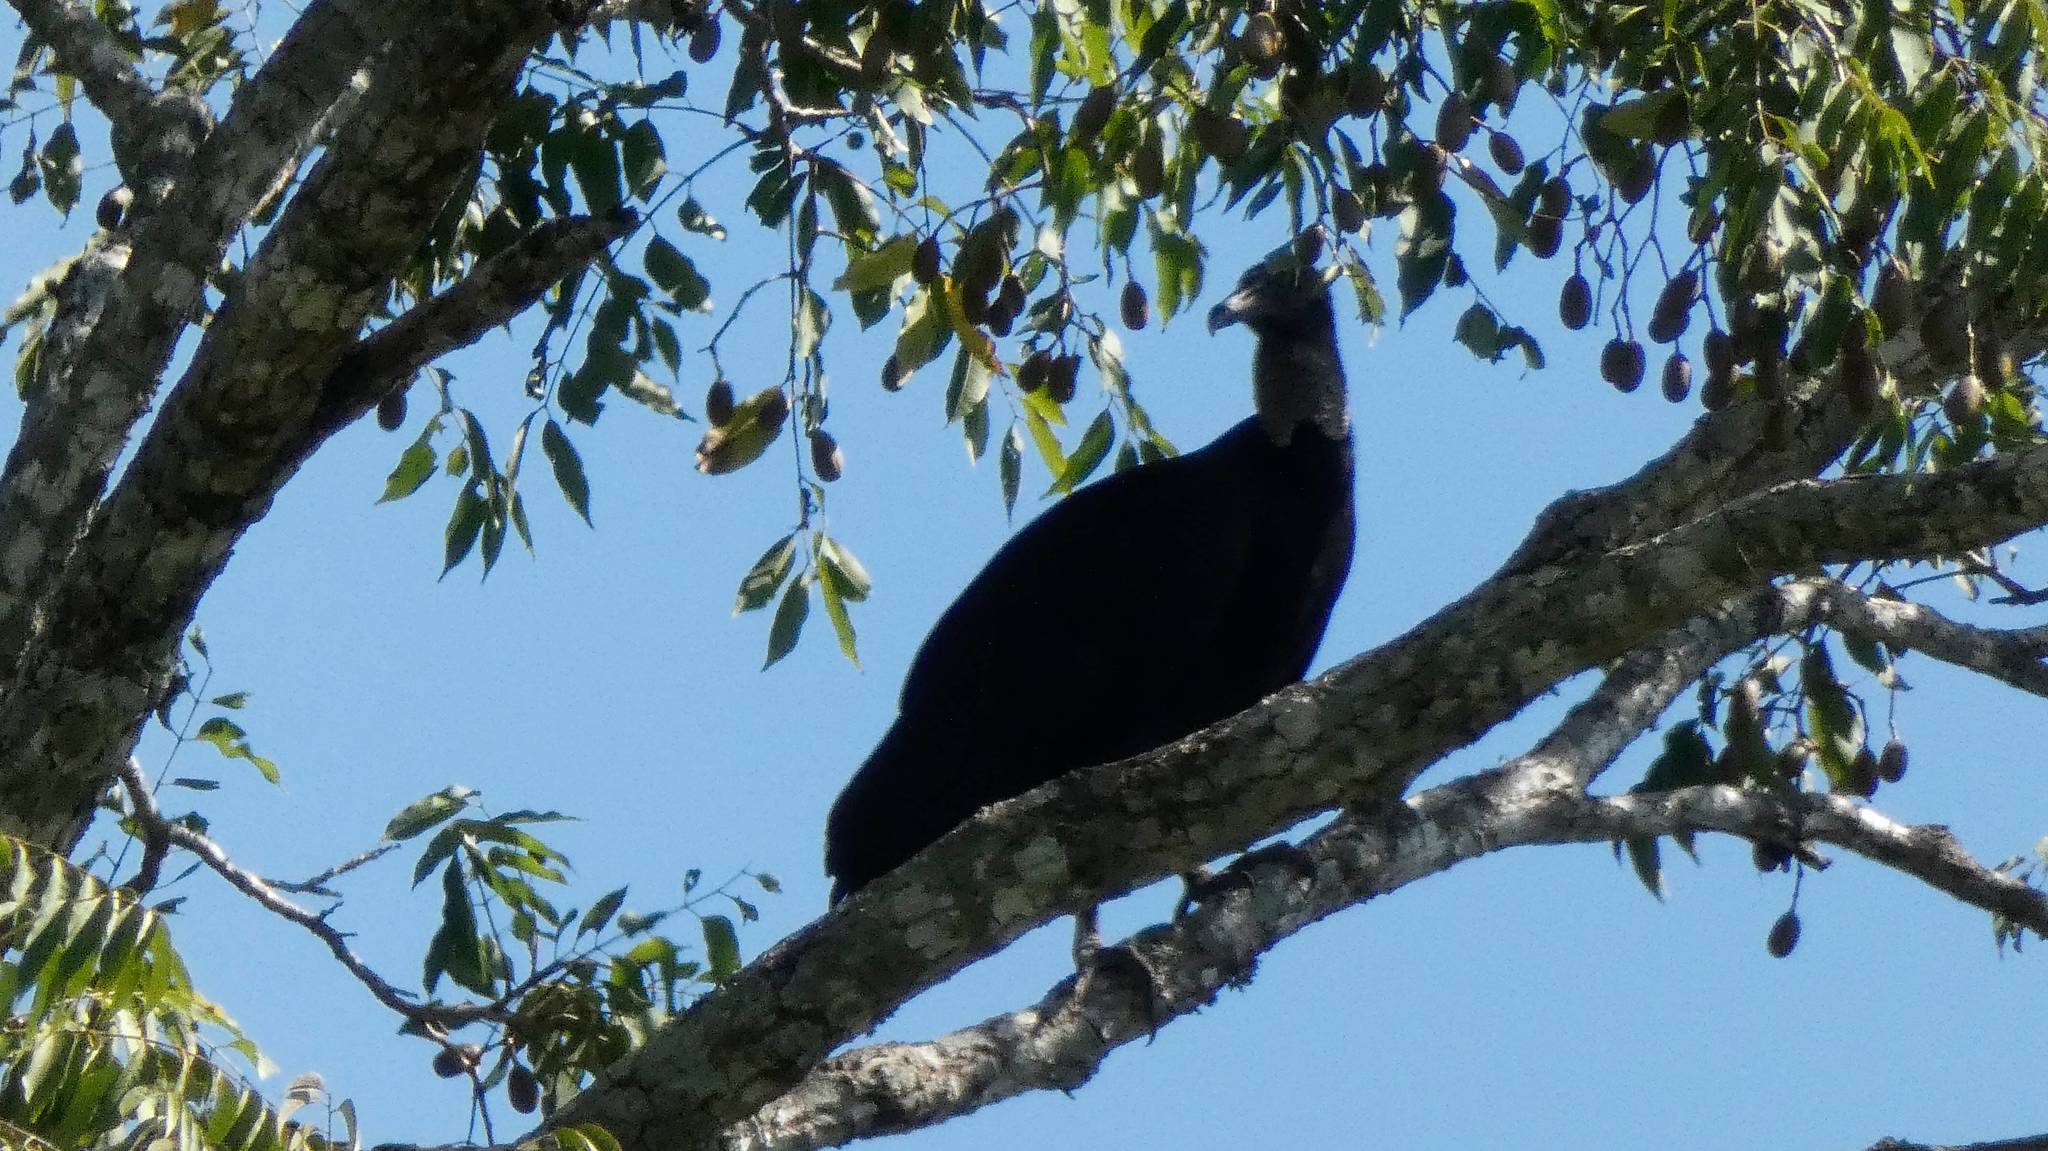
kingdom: Animalia
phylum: Chordata
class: Aves
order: Accipitriformes
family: Cathartidae
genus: Coragyps
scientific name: Coragyps atratus
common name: Black vulture
